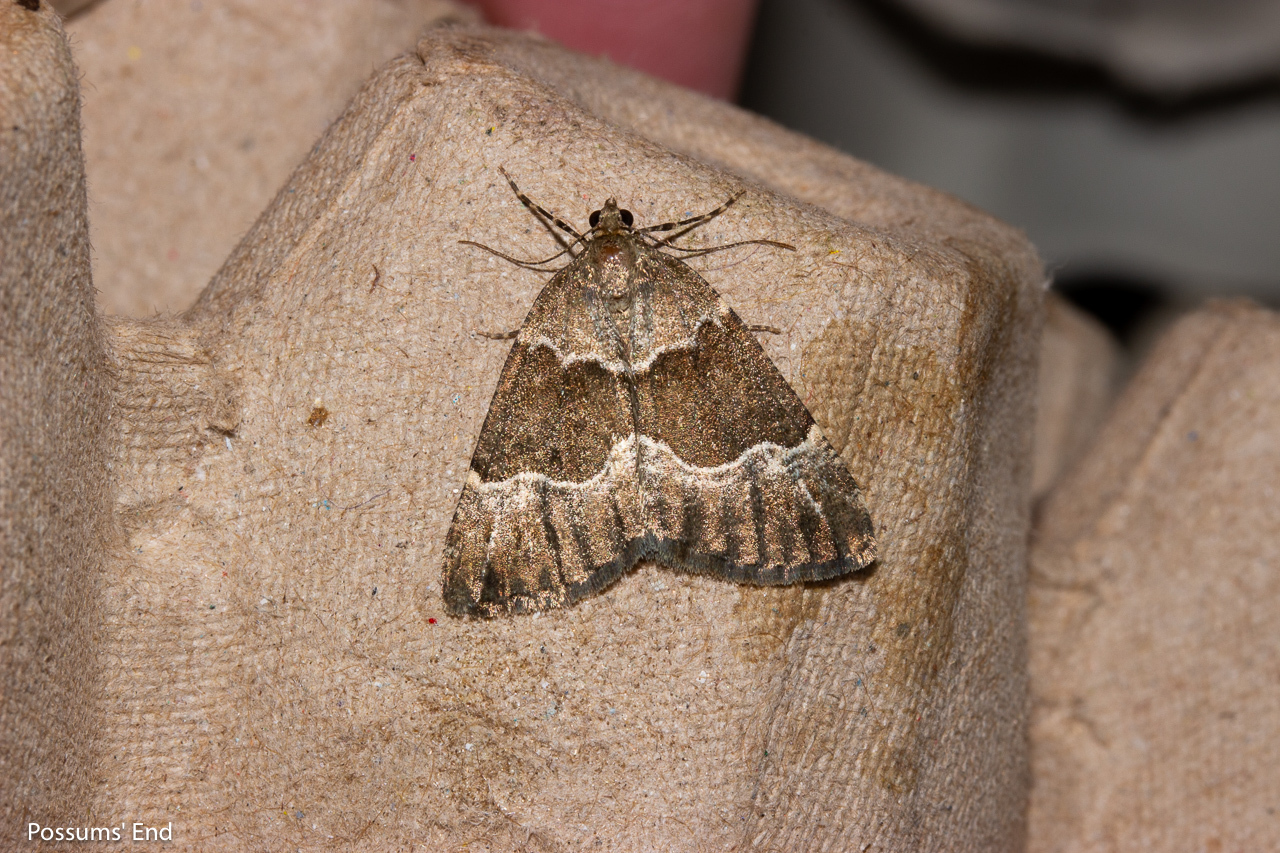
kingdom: Animalia
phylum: Arthropoda
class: Insecta
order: Lepidoptera
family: Geometridae
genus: Pseudocoremia
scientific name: Pseudocoremia
